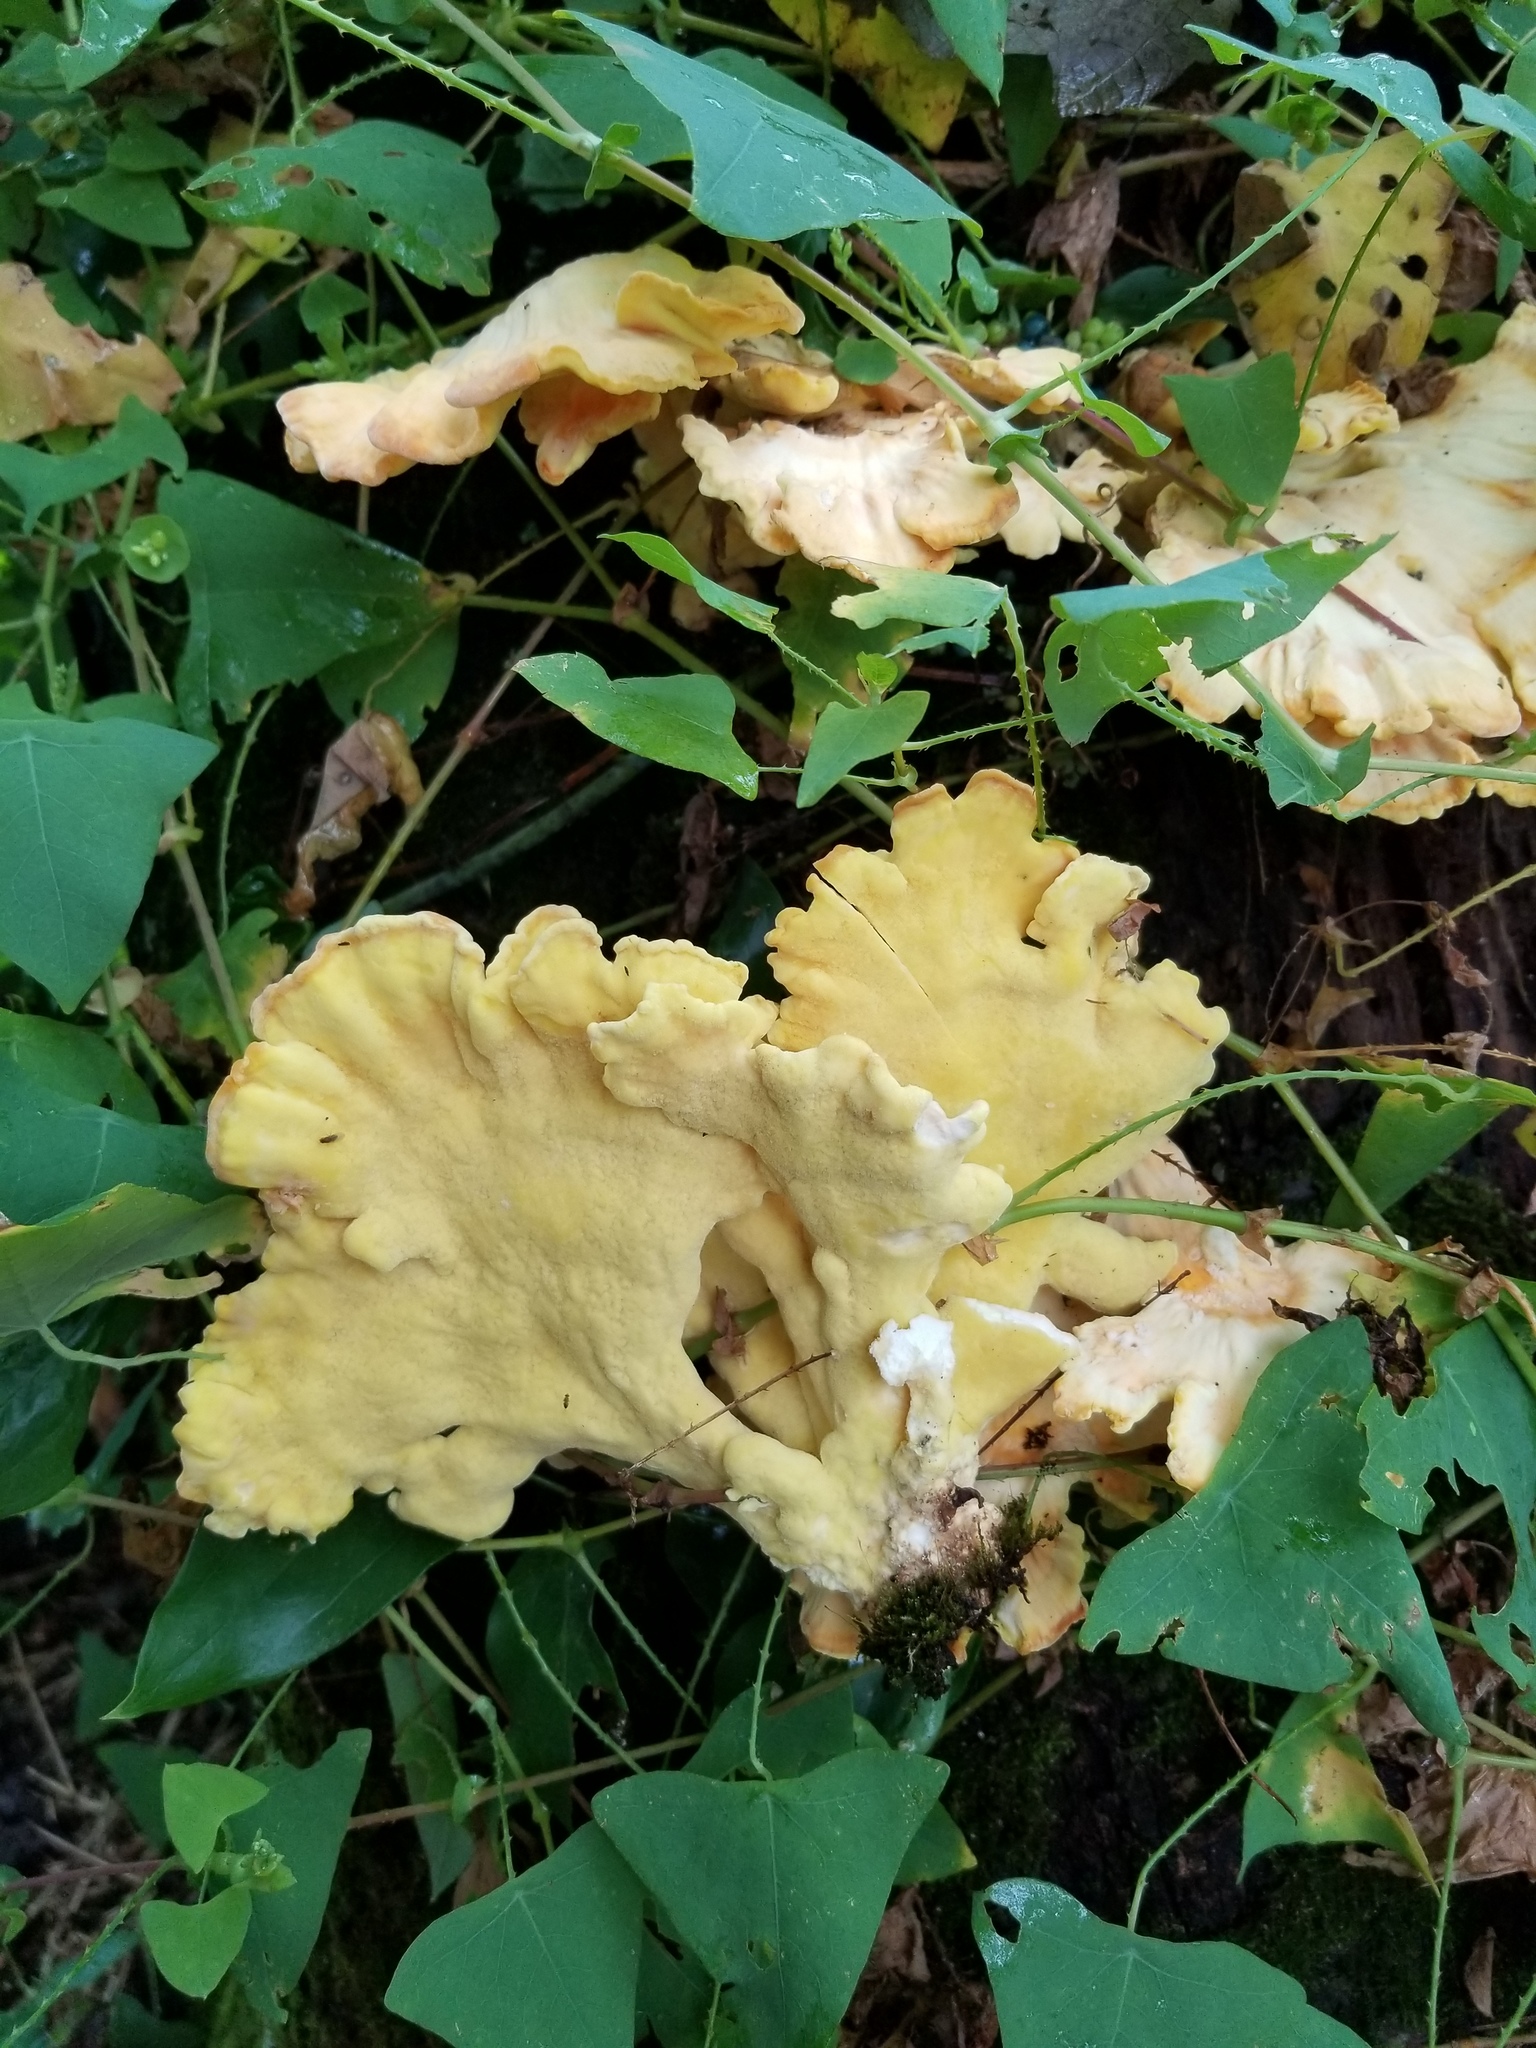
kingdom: Fungi
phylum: Basidiomycota
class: Agaricomycetes
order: Polyporales
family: Laetiporaceae
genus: Laetiporus
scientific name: Laetiporus sulphureus
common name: Chicken of the woods
